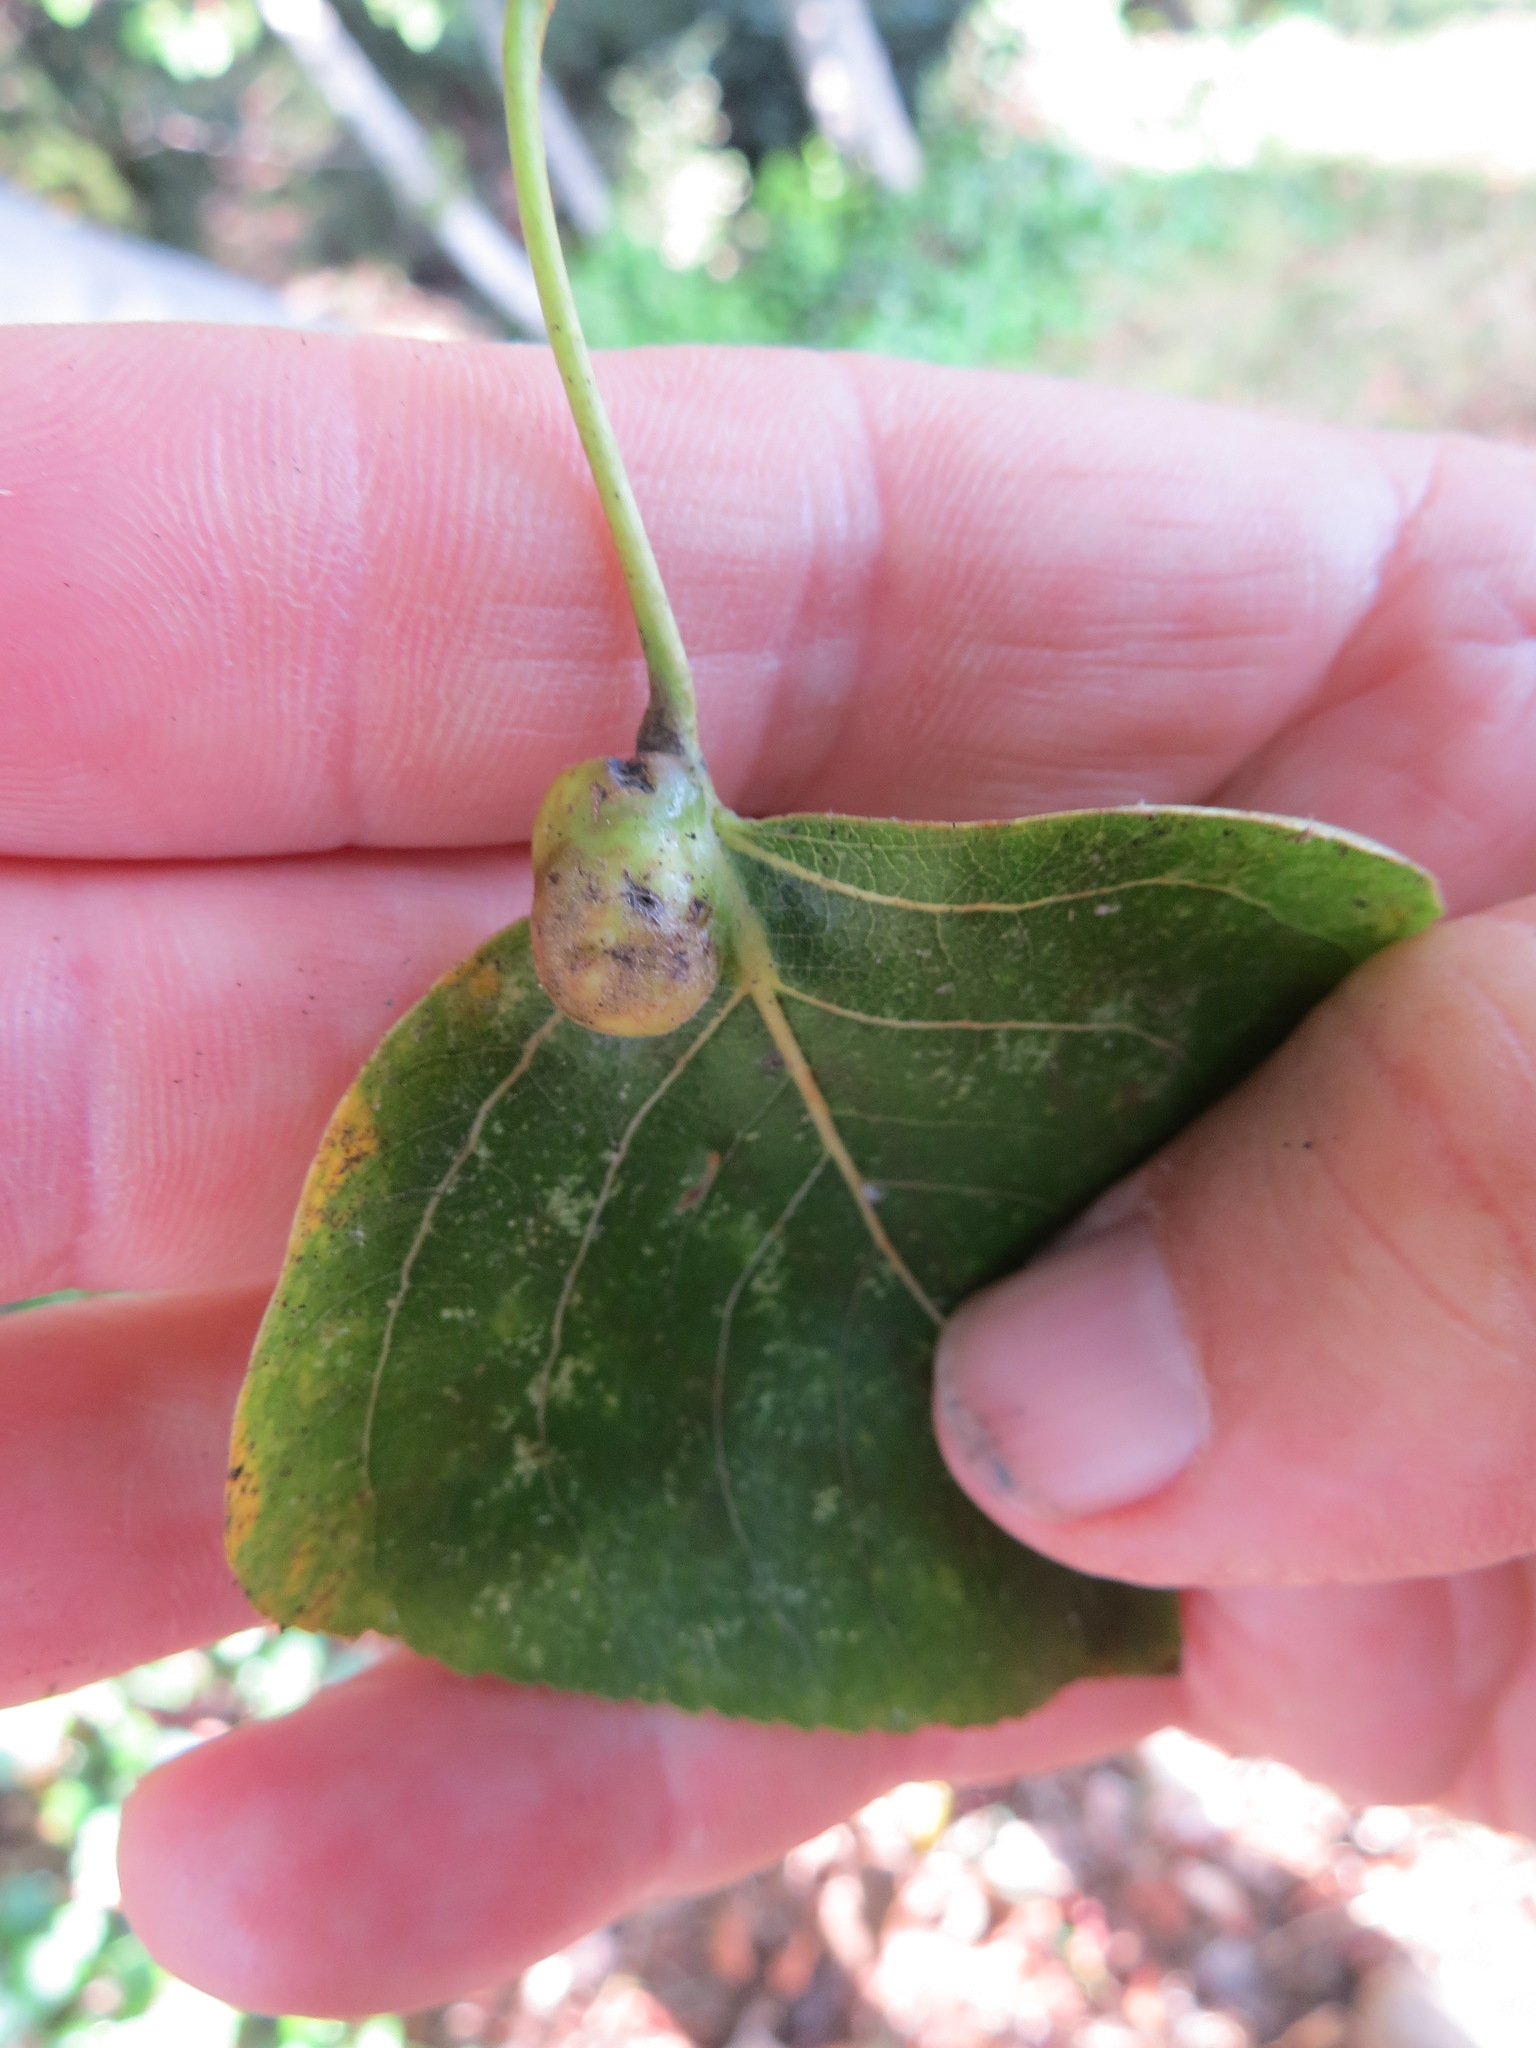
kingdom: Animalia
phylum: Arthropoda
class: Insecta
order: Hemiptera
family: Aphididae
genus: Pemphigus
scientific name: Pemphigus populi-globuli
